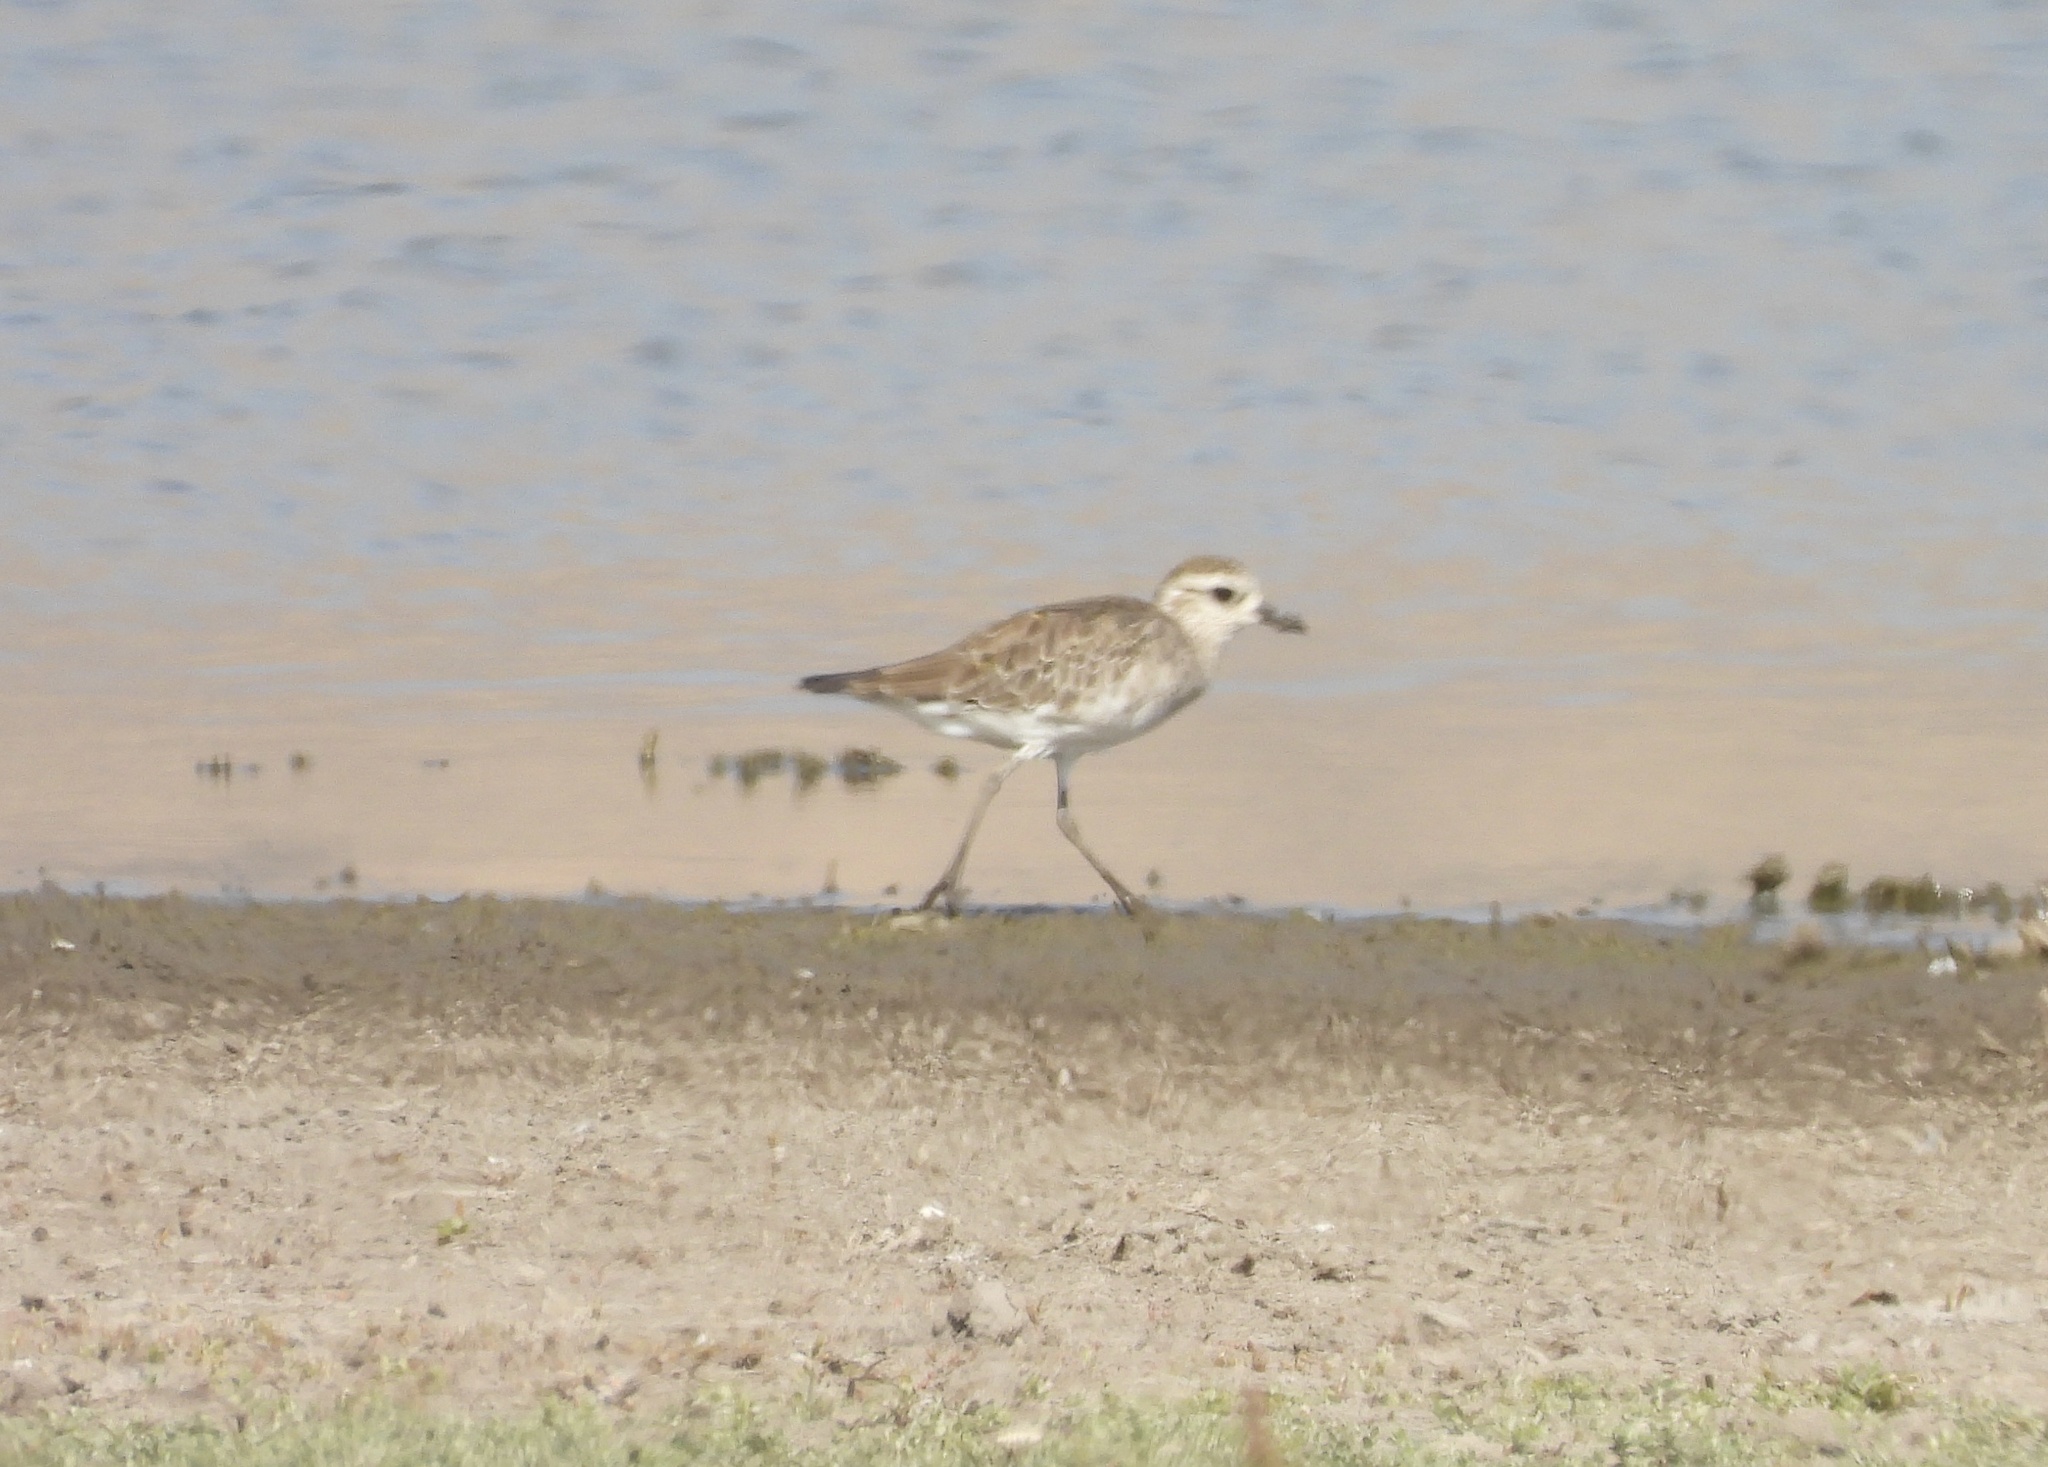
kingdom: Animalia
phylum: Chordata
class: Aves
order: Charadriiformes
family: Charadriidae
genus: Pluvialis
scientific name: Pluvialis dominica
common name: American golden plover
